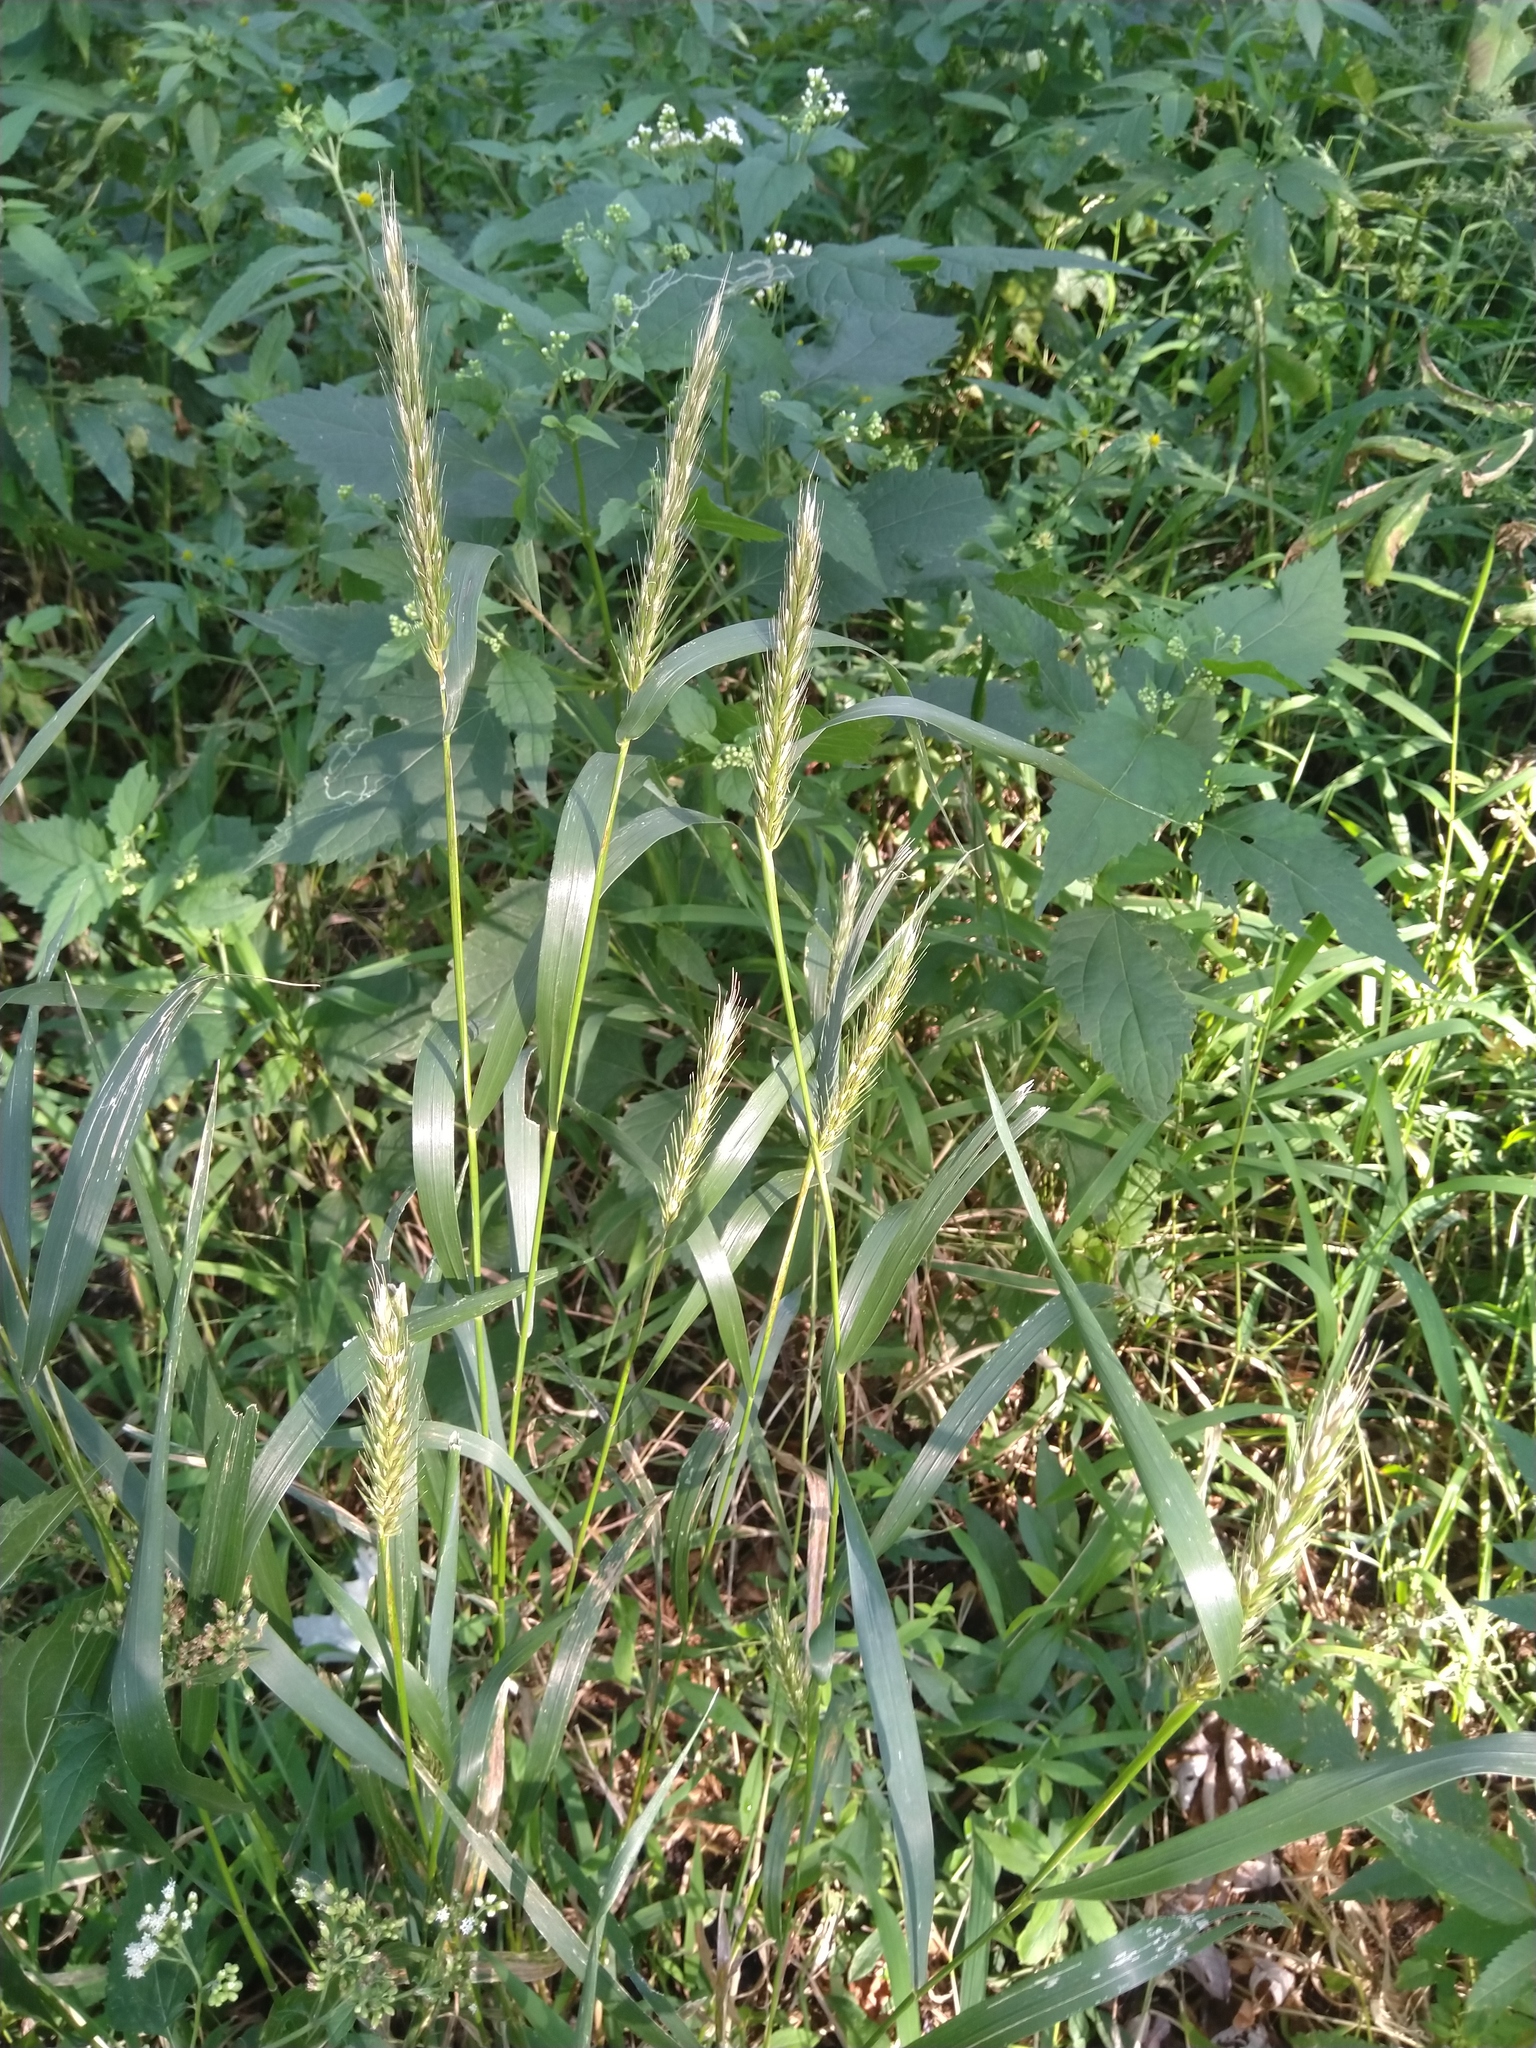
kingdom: Plantae
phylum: Tracheophyta
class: Liliopsida
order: Poales
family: Poaceae
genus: Elymus
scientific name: Elymus virginicus
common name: Common eastern wildrye
